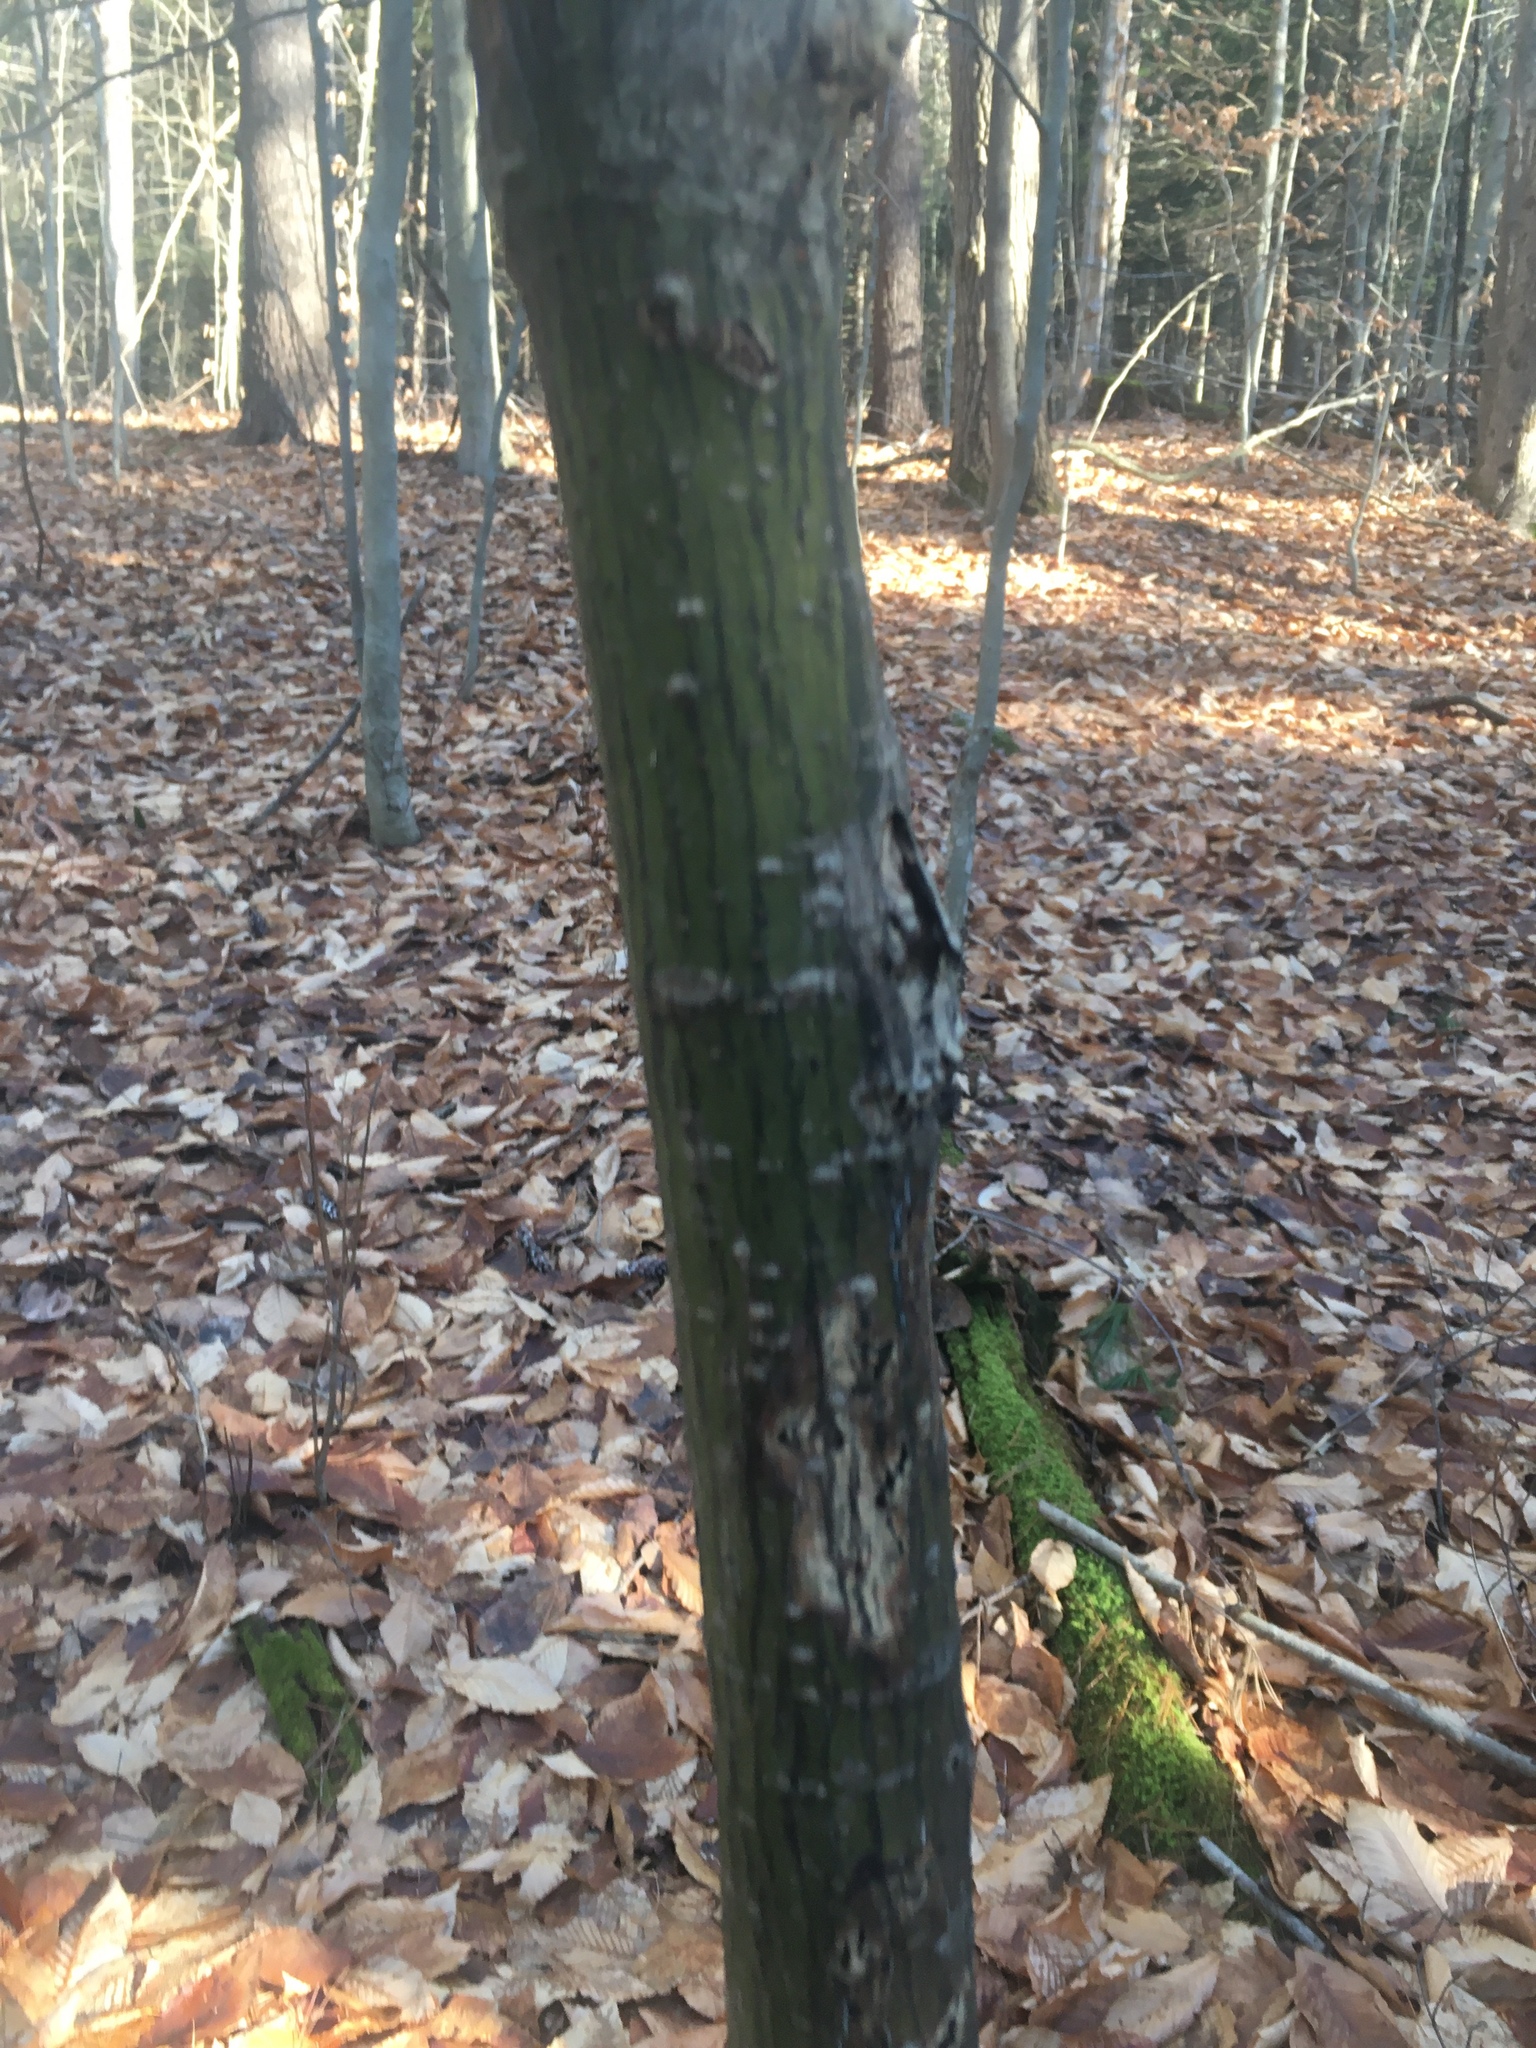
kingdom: Plantae
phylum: Tracheophyta
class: Magnoliopsida
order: Sapindales
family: Sapindaceae
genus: Acer
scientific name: Acer pensylvanicum
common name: Moosewood
